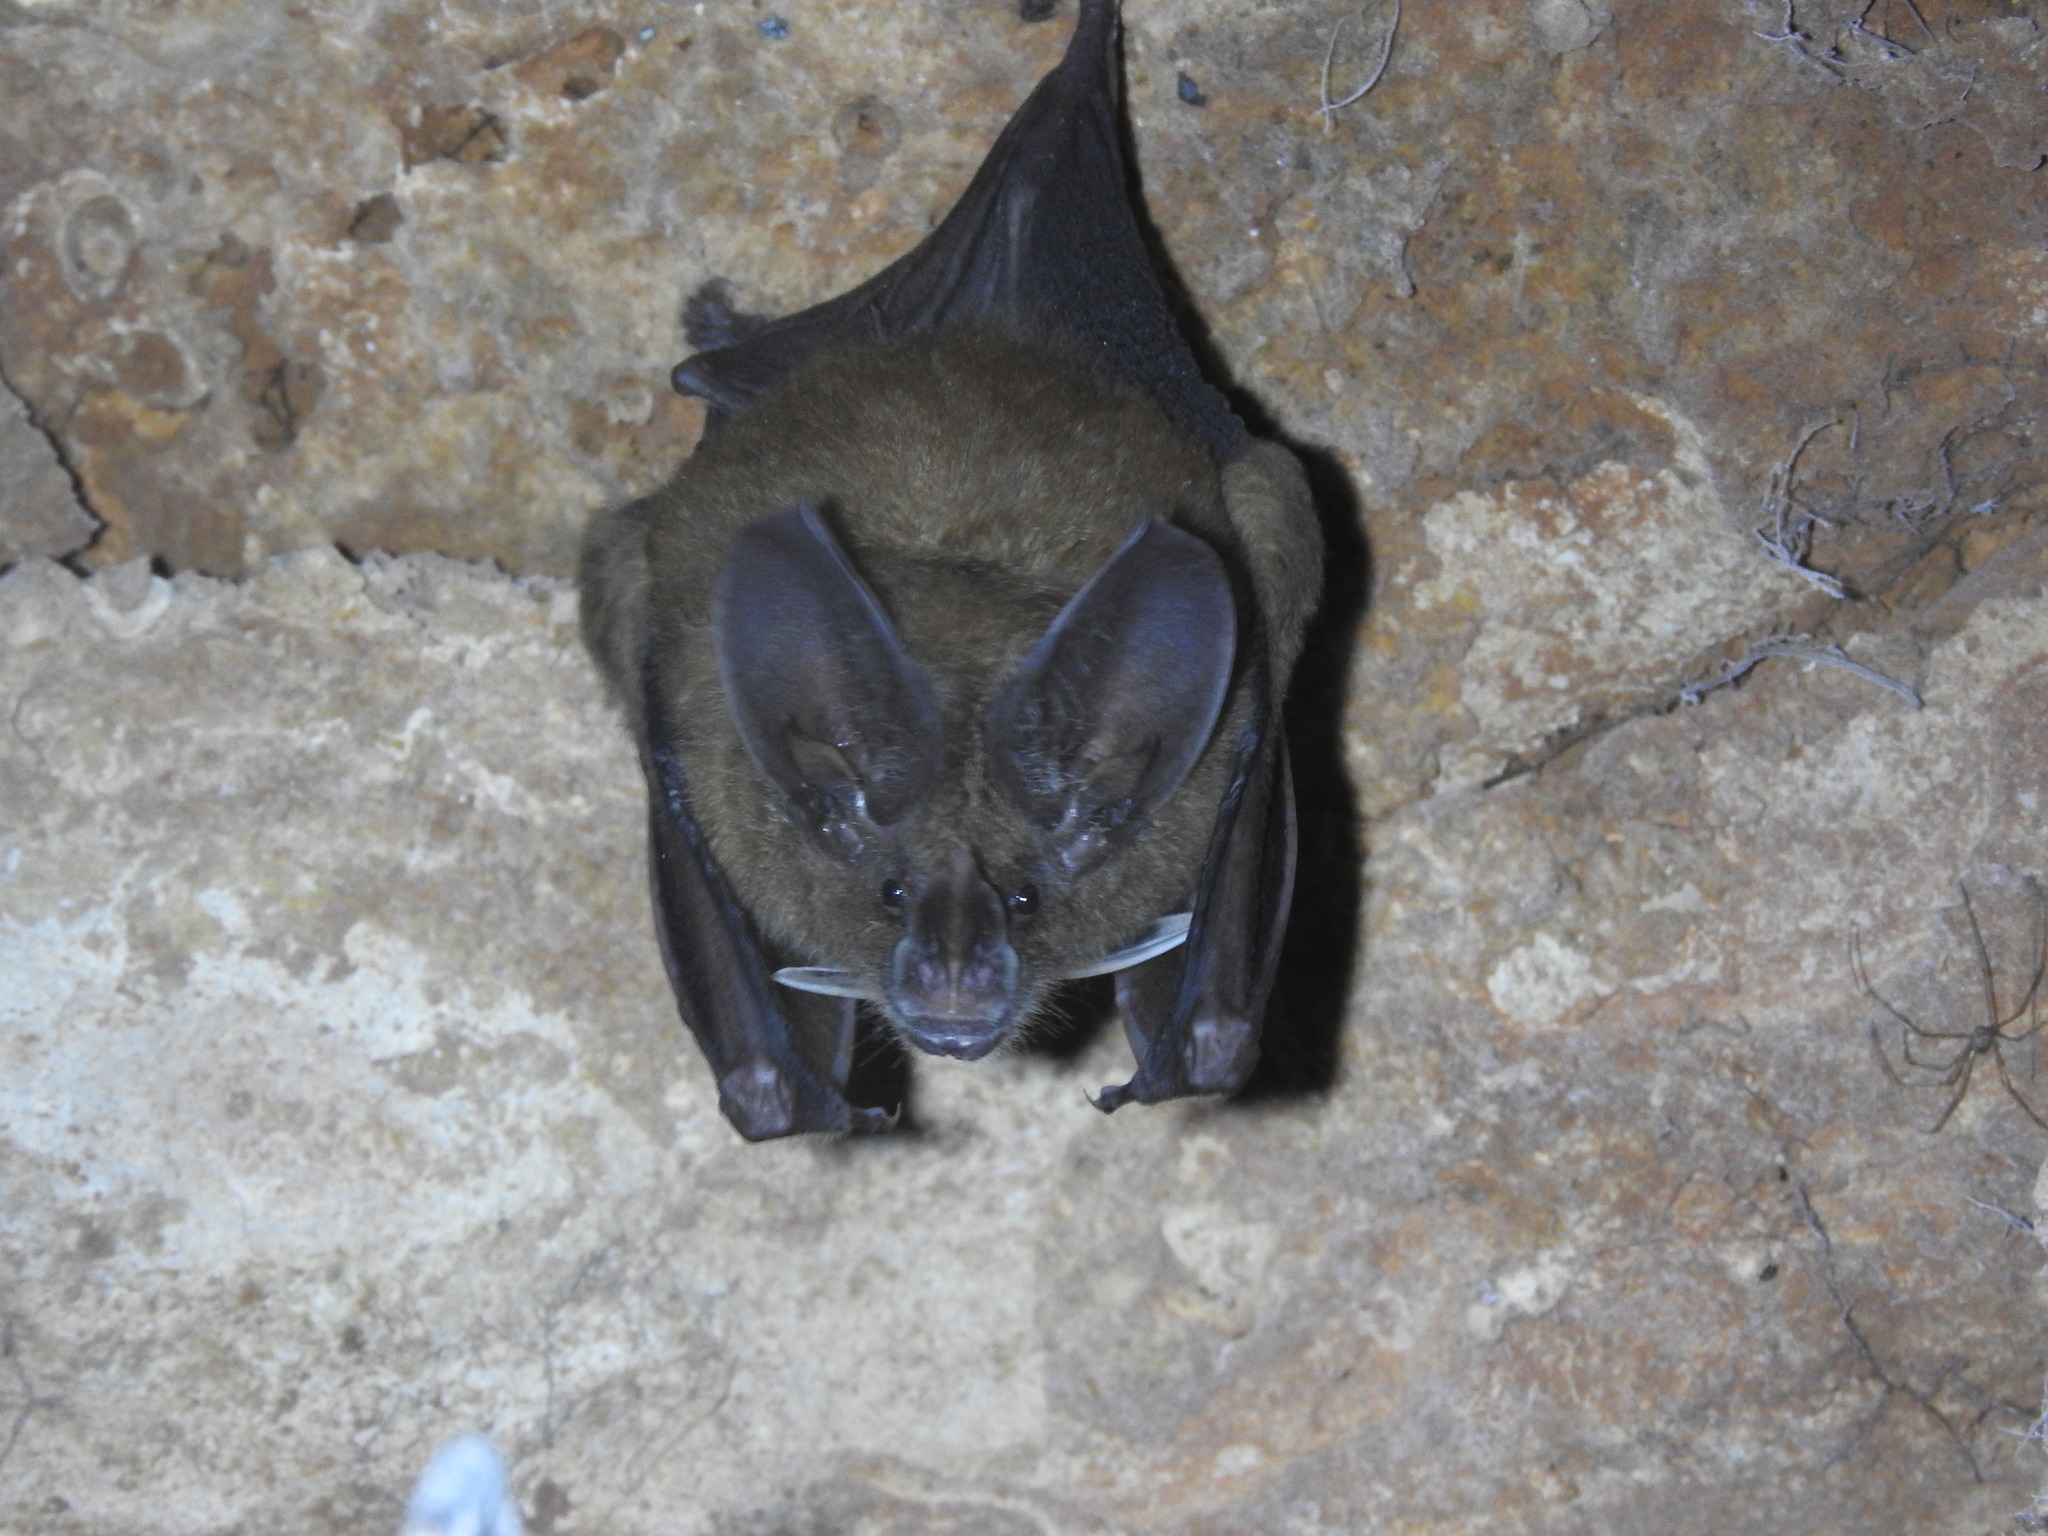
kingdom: Animalia
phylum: Chordata
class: Mammalia
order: Chiroptera
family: Phyllostomidae
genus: Mimon
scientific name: Mimon cozumelae
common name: Cozumelan golden bat
